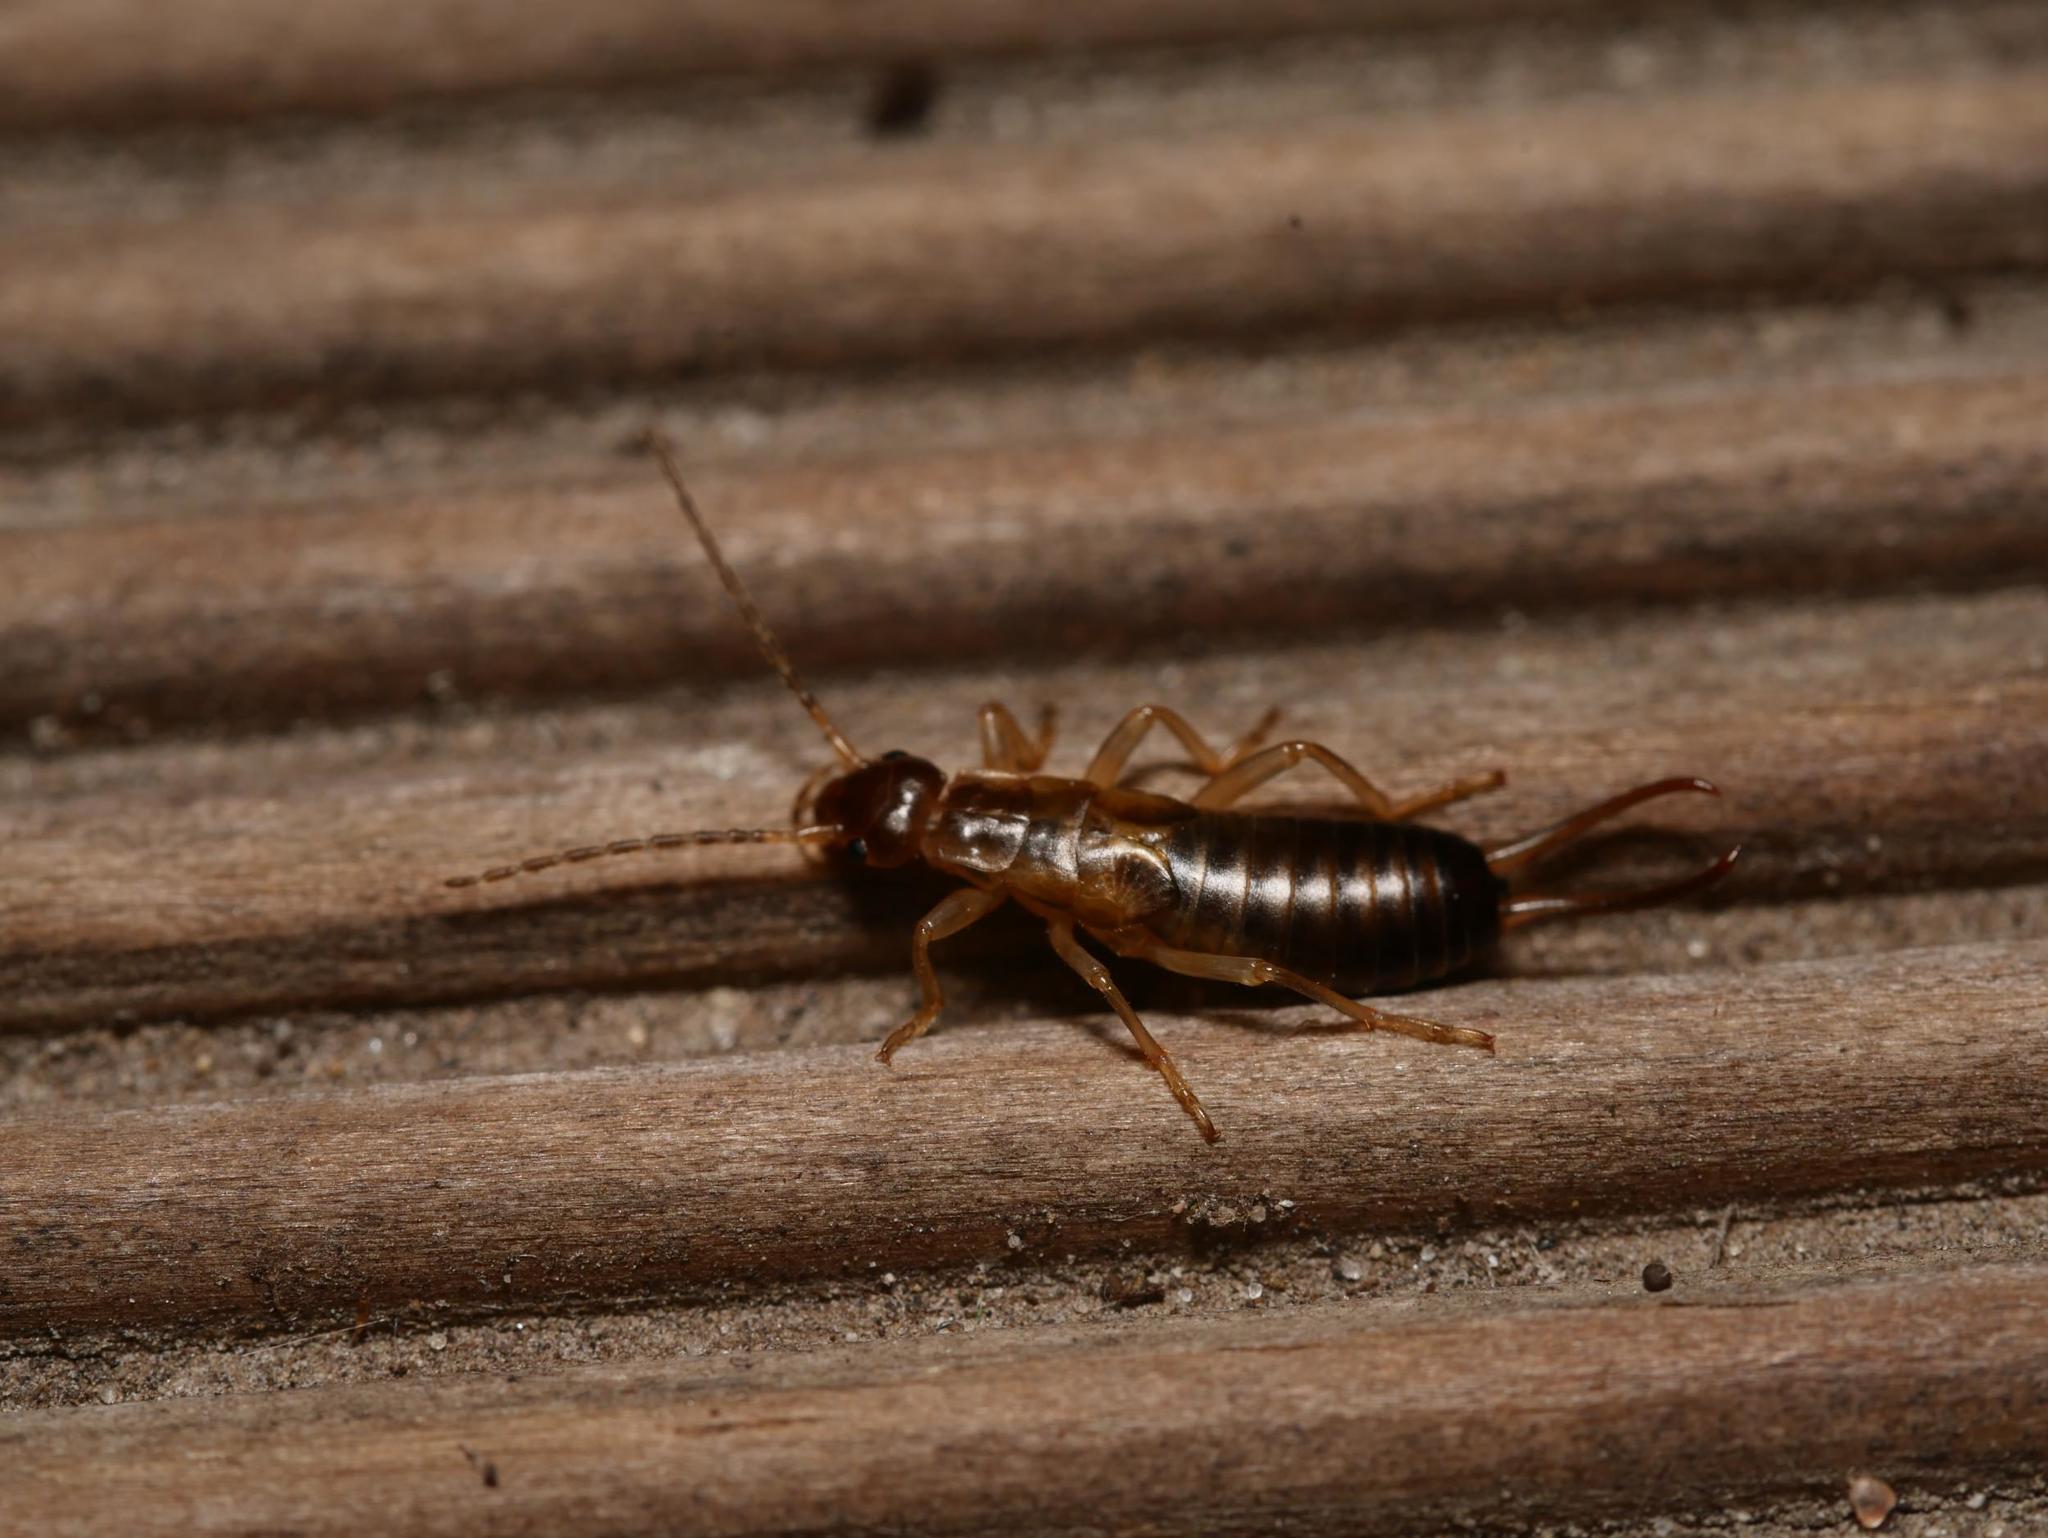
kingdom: Animalia
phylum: Arthropoda
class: Insecta
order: Dermaptera
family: Forficulidae
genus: Forficula
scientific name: Forficula
